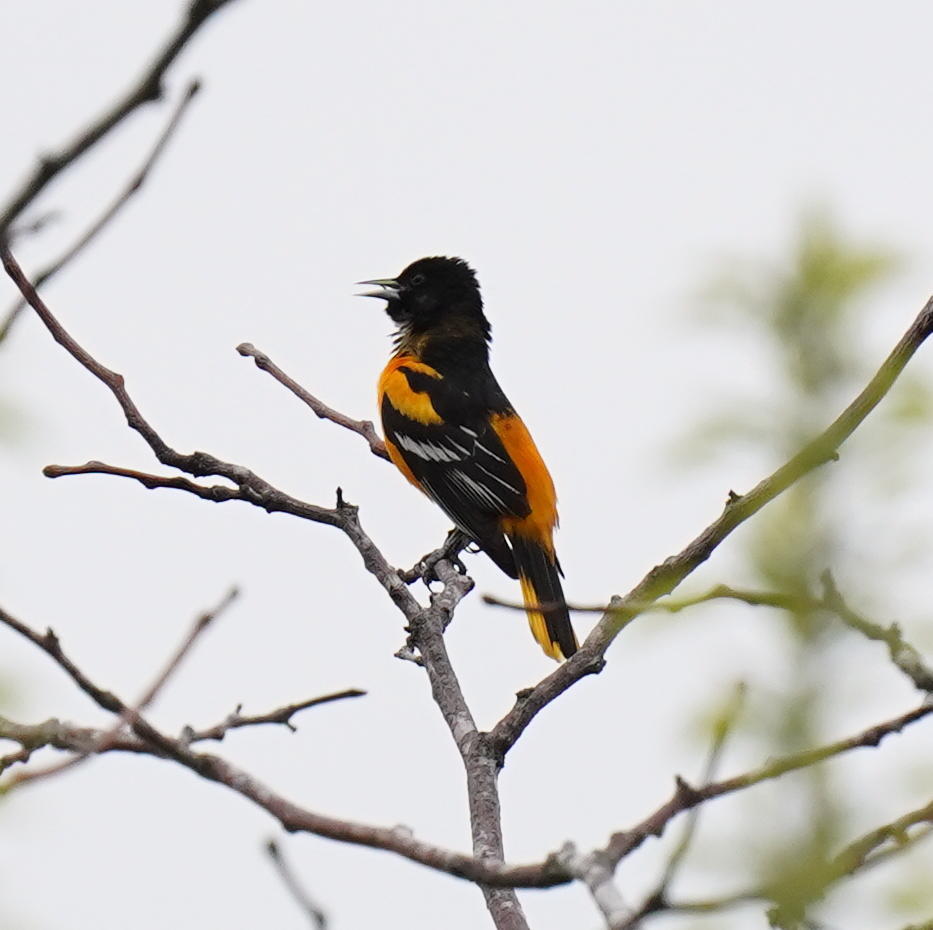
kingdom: Animalia
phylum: Chordata
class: Aves
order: Passeriformes
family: Icteridae
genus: Icterus
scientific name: Icterus galbula
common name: Baltimore oriole
